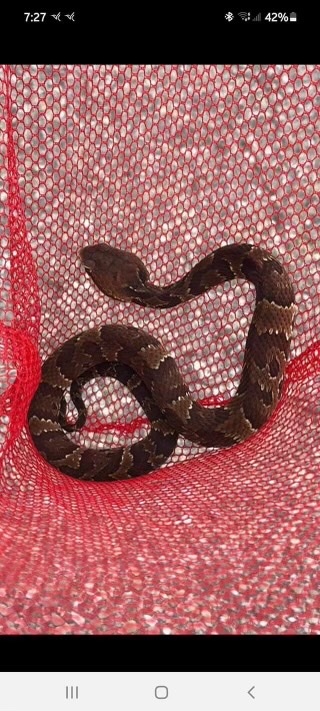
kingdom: Animalia
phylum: Chordata
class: Squamata
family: Viperidae
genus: Agkistrodon
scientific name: Agkistrodon conanti
